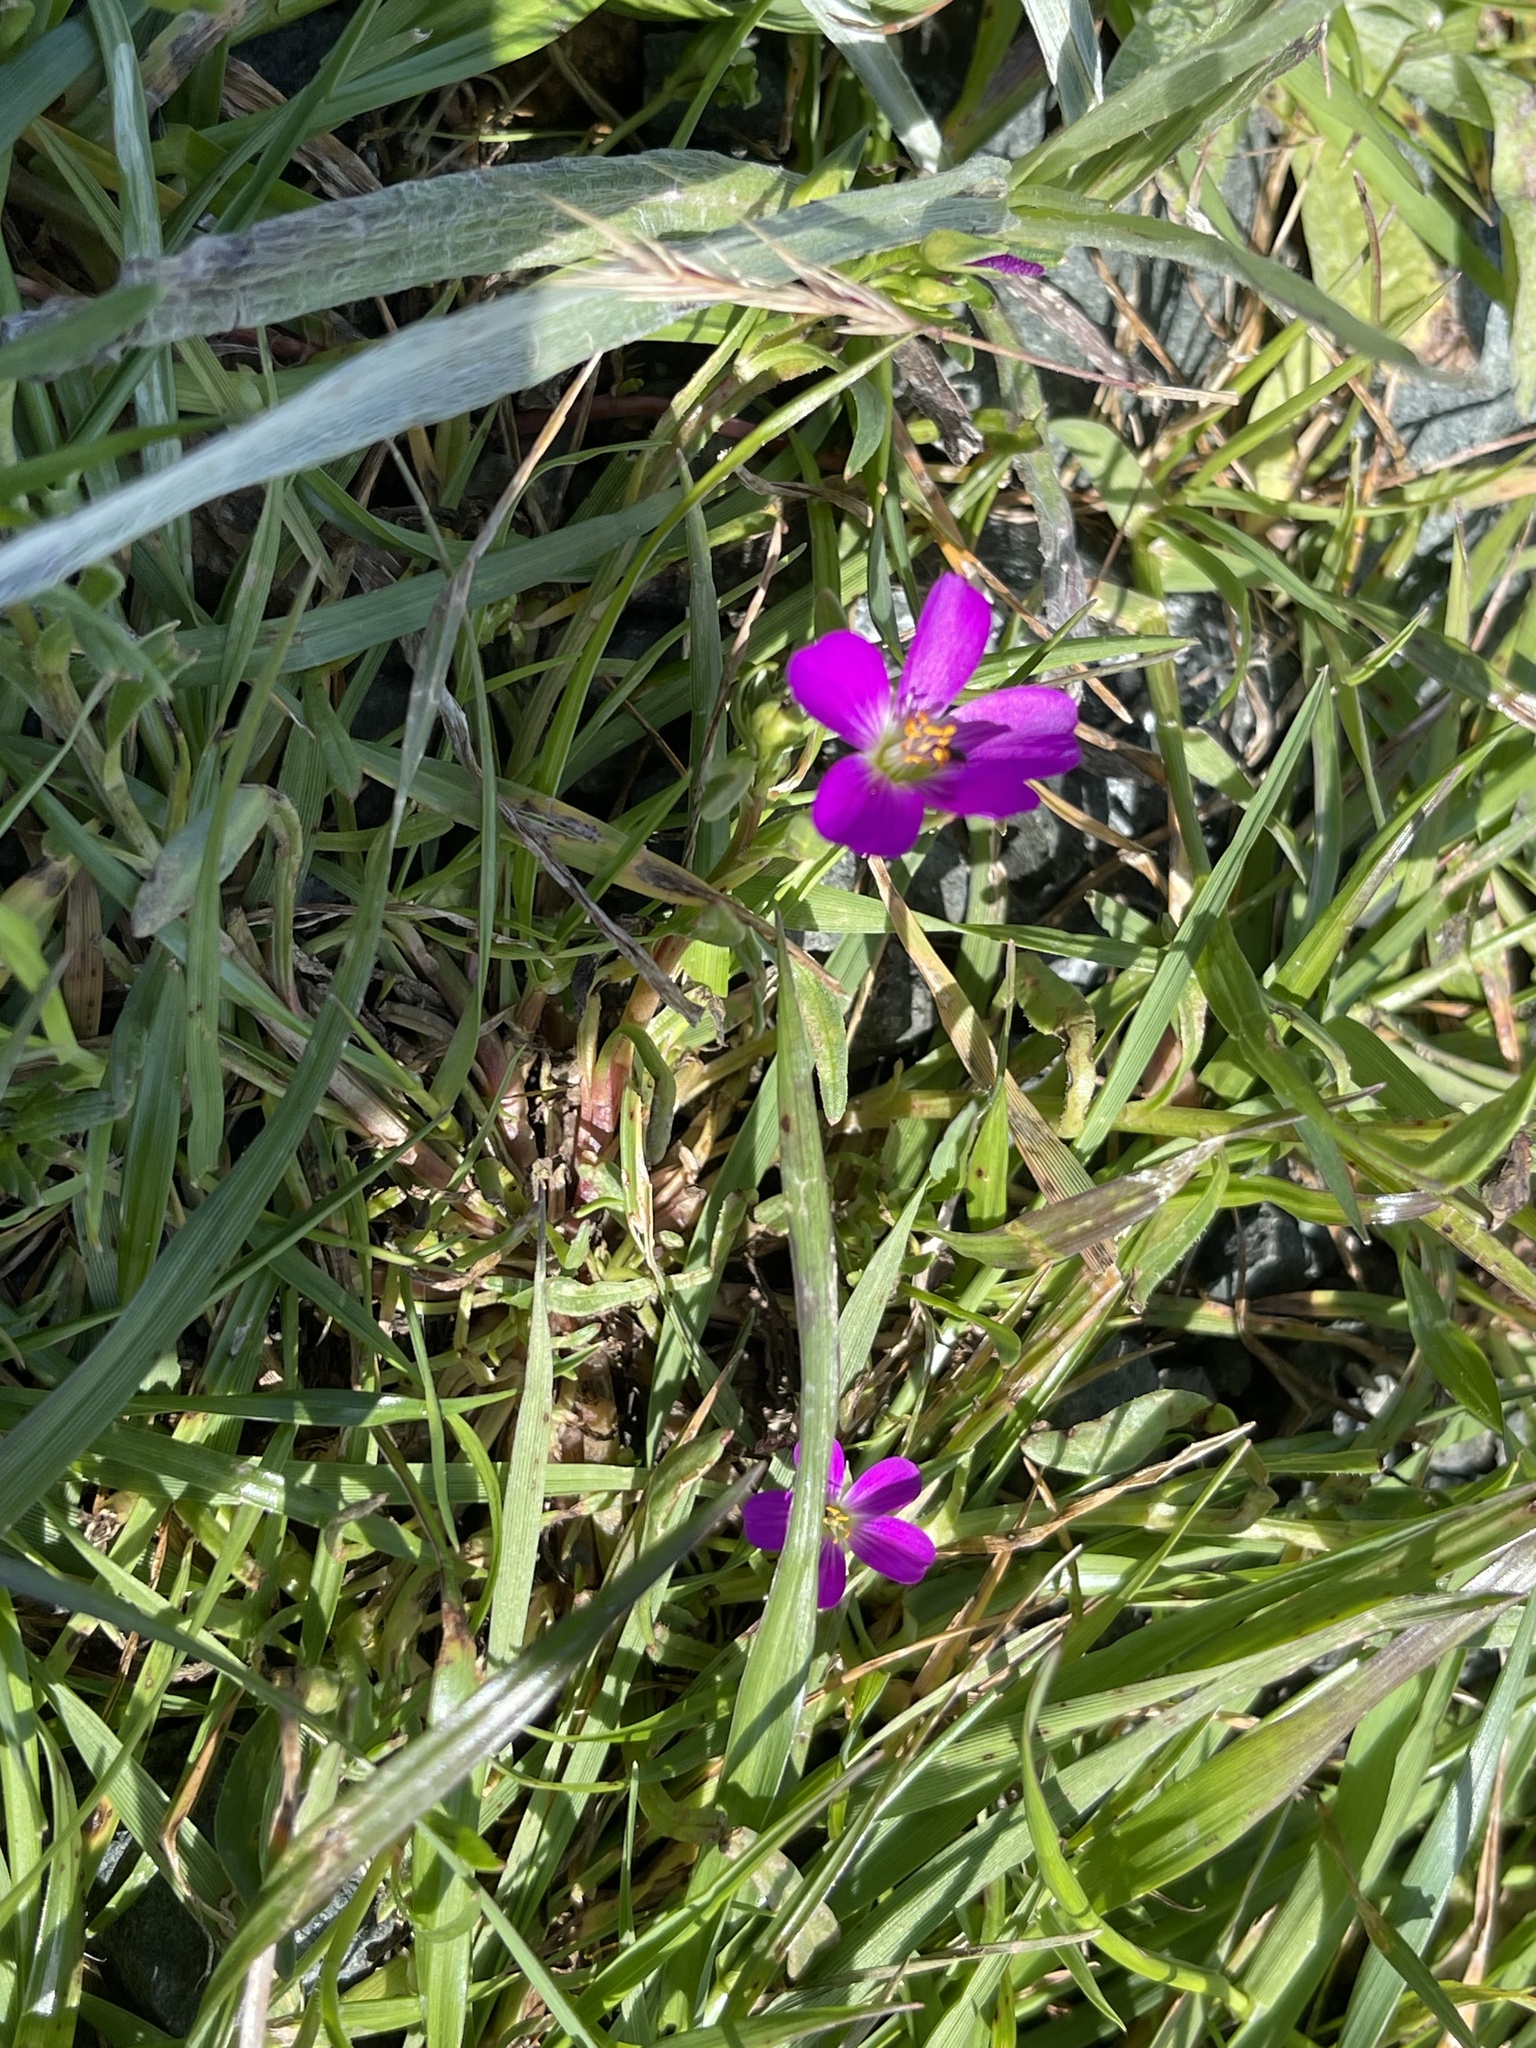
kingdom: Plantae
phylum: Tracheophyta
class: Magnoliopsida
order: Caryophyllales
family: Montiaceae
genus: Calandrinia
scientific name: Calandrinia menziesii
